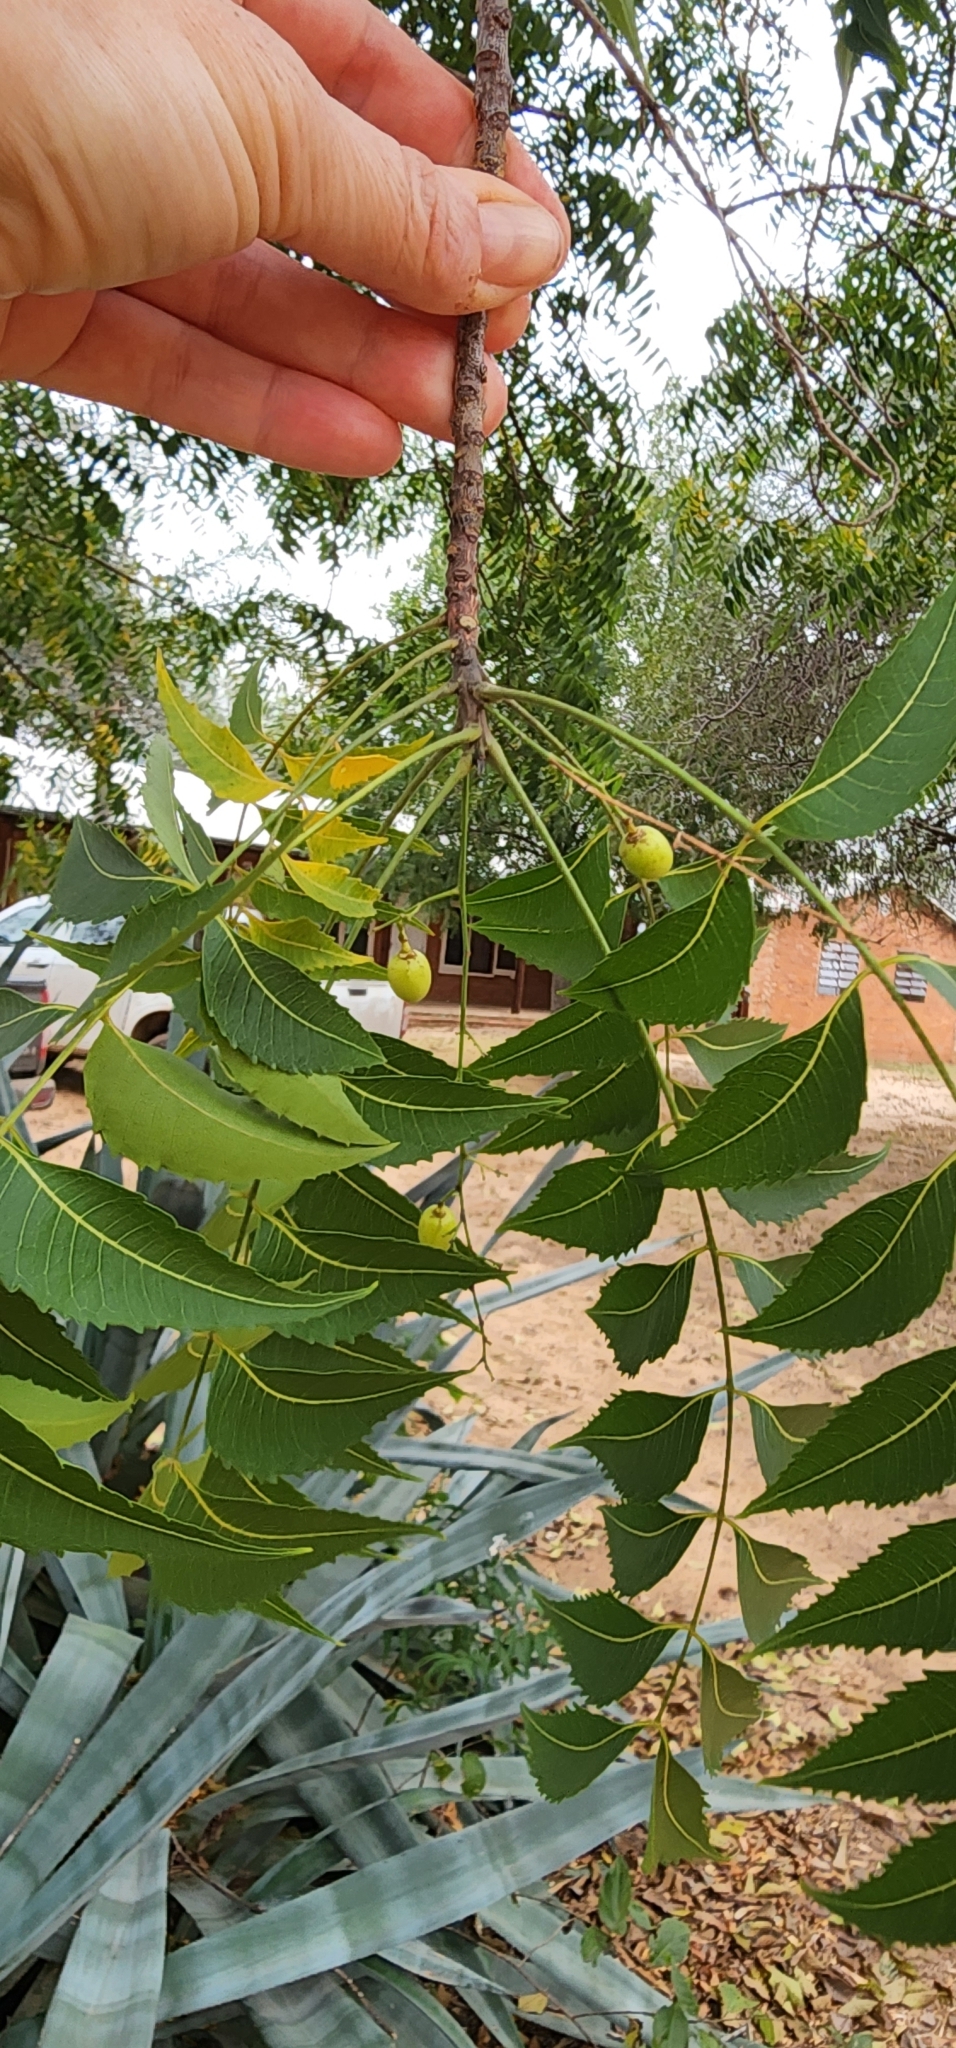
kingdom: Plantae
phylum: Tracheophyta
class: Magnoliopsida
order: Sapindales
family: Meliaceae
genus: Azadirachta
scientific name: Azadirachta indica
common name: Neem
